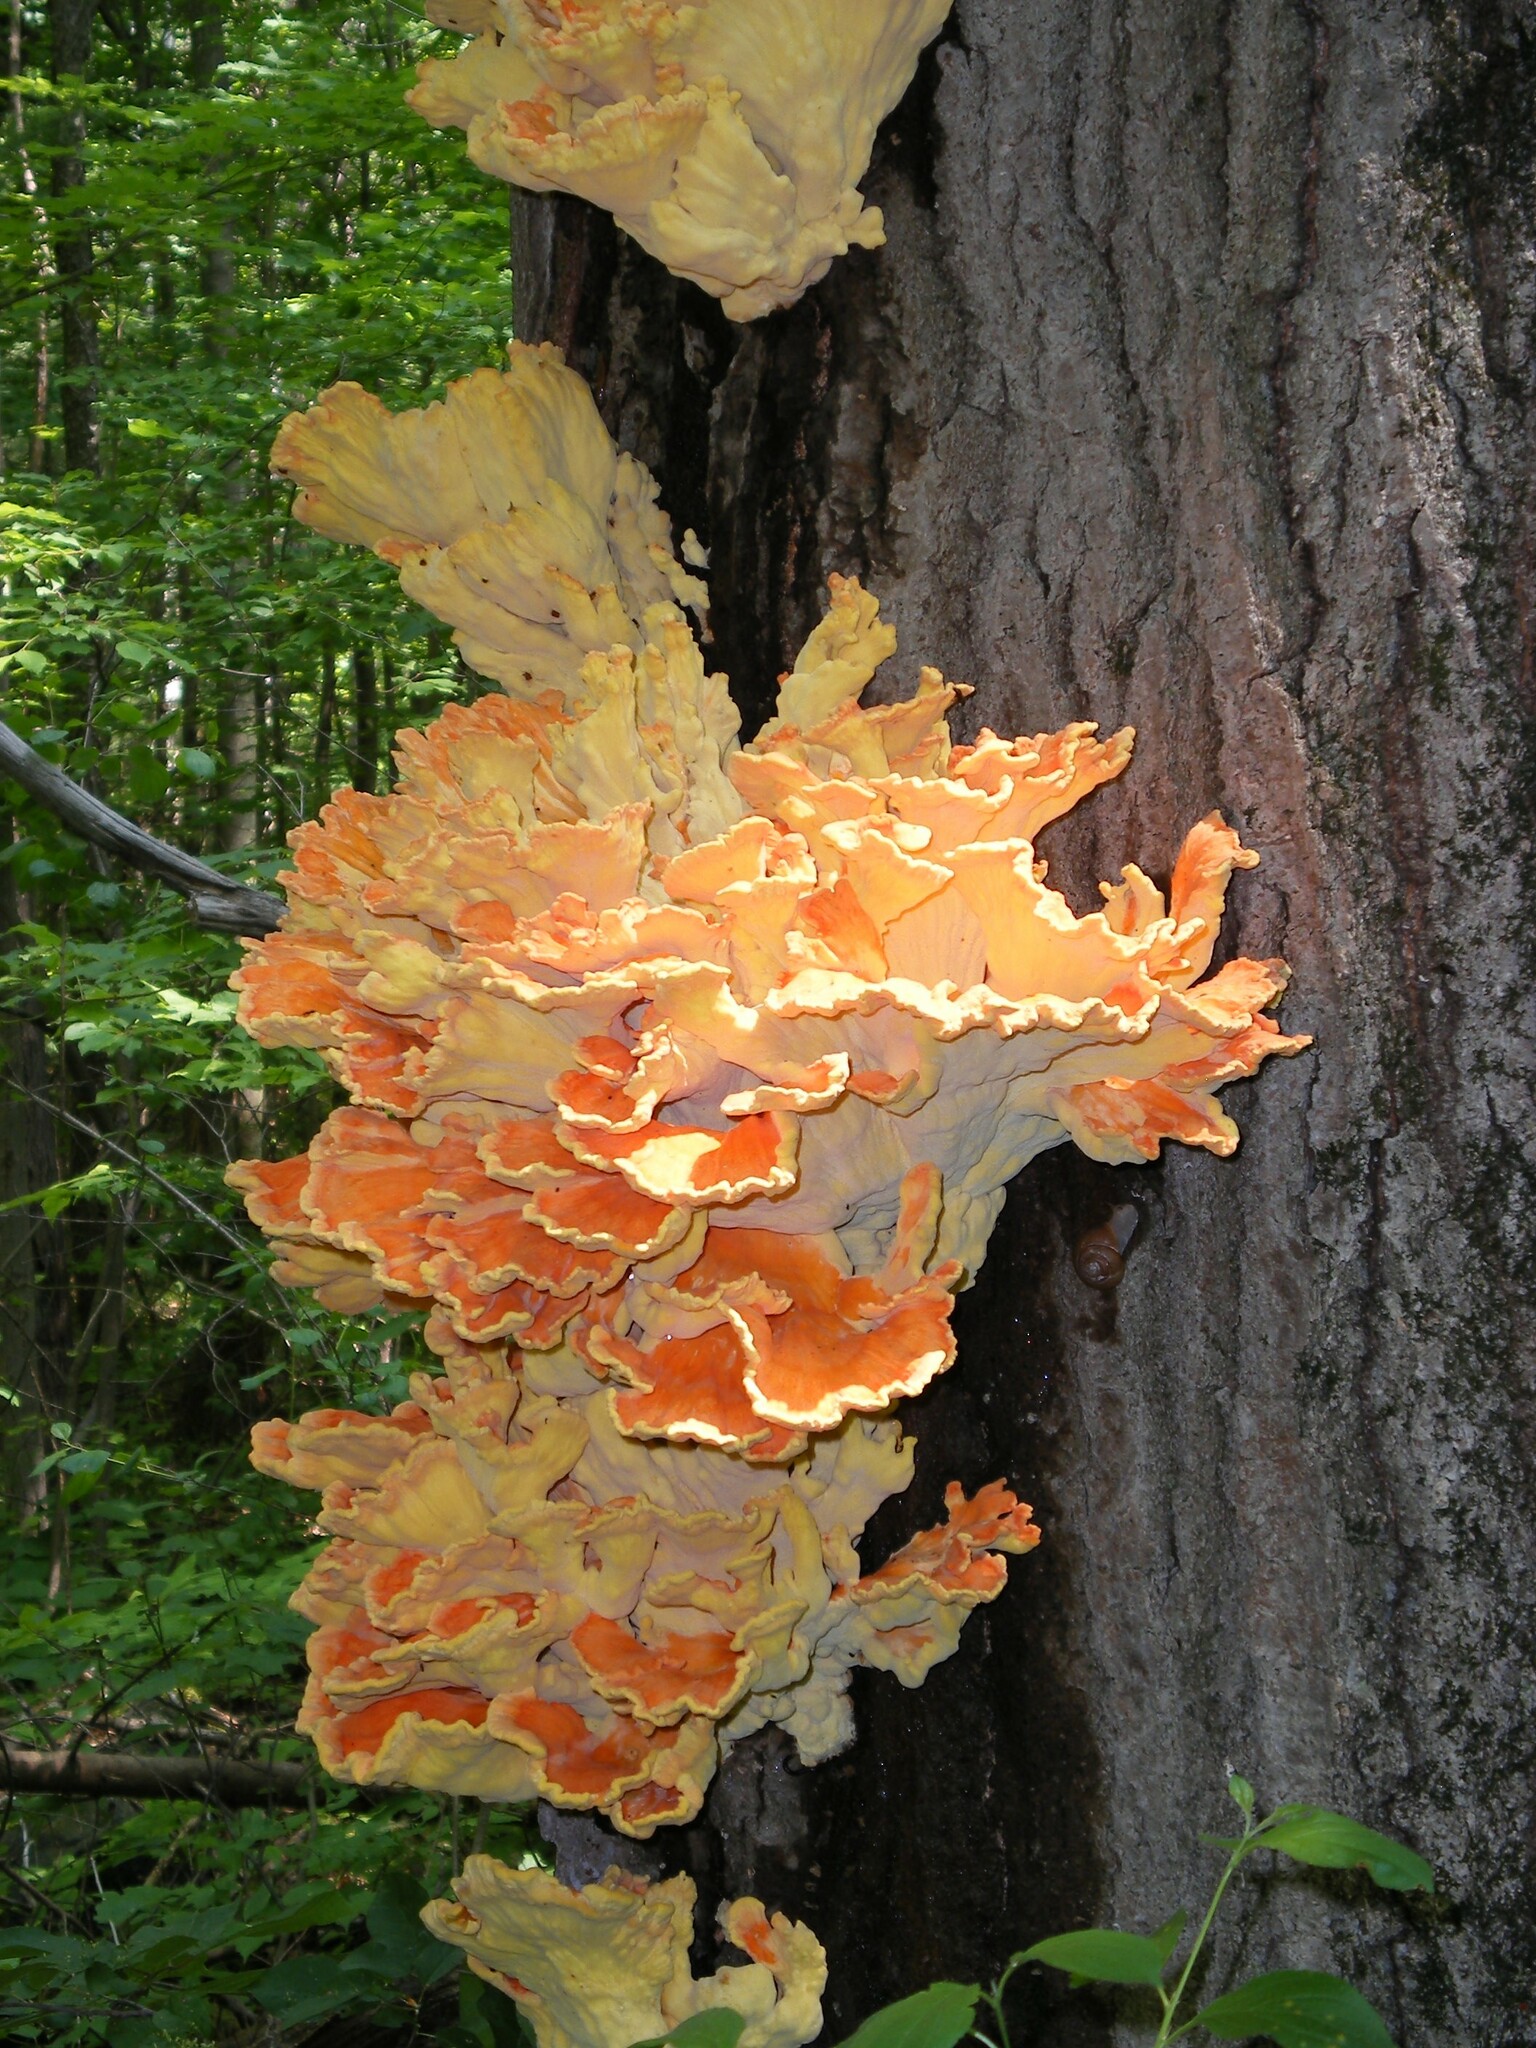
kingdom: Fungi
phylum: Basidiomycota
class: Agaricomycetes
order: Polyporales
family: Laetiporaceae
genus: Laetiporus
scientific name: Laetiporus sulphureus
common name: Chicken of the woods
